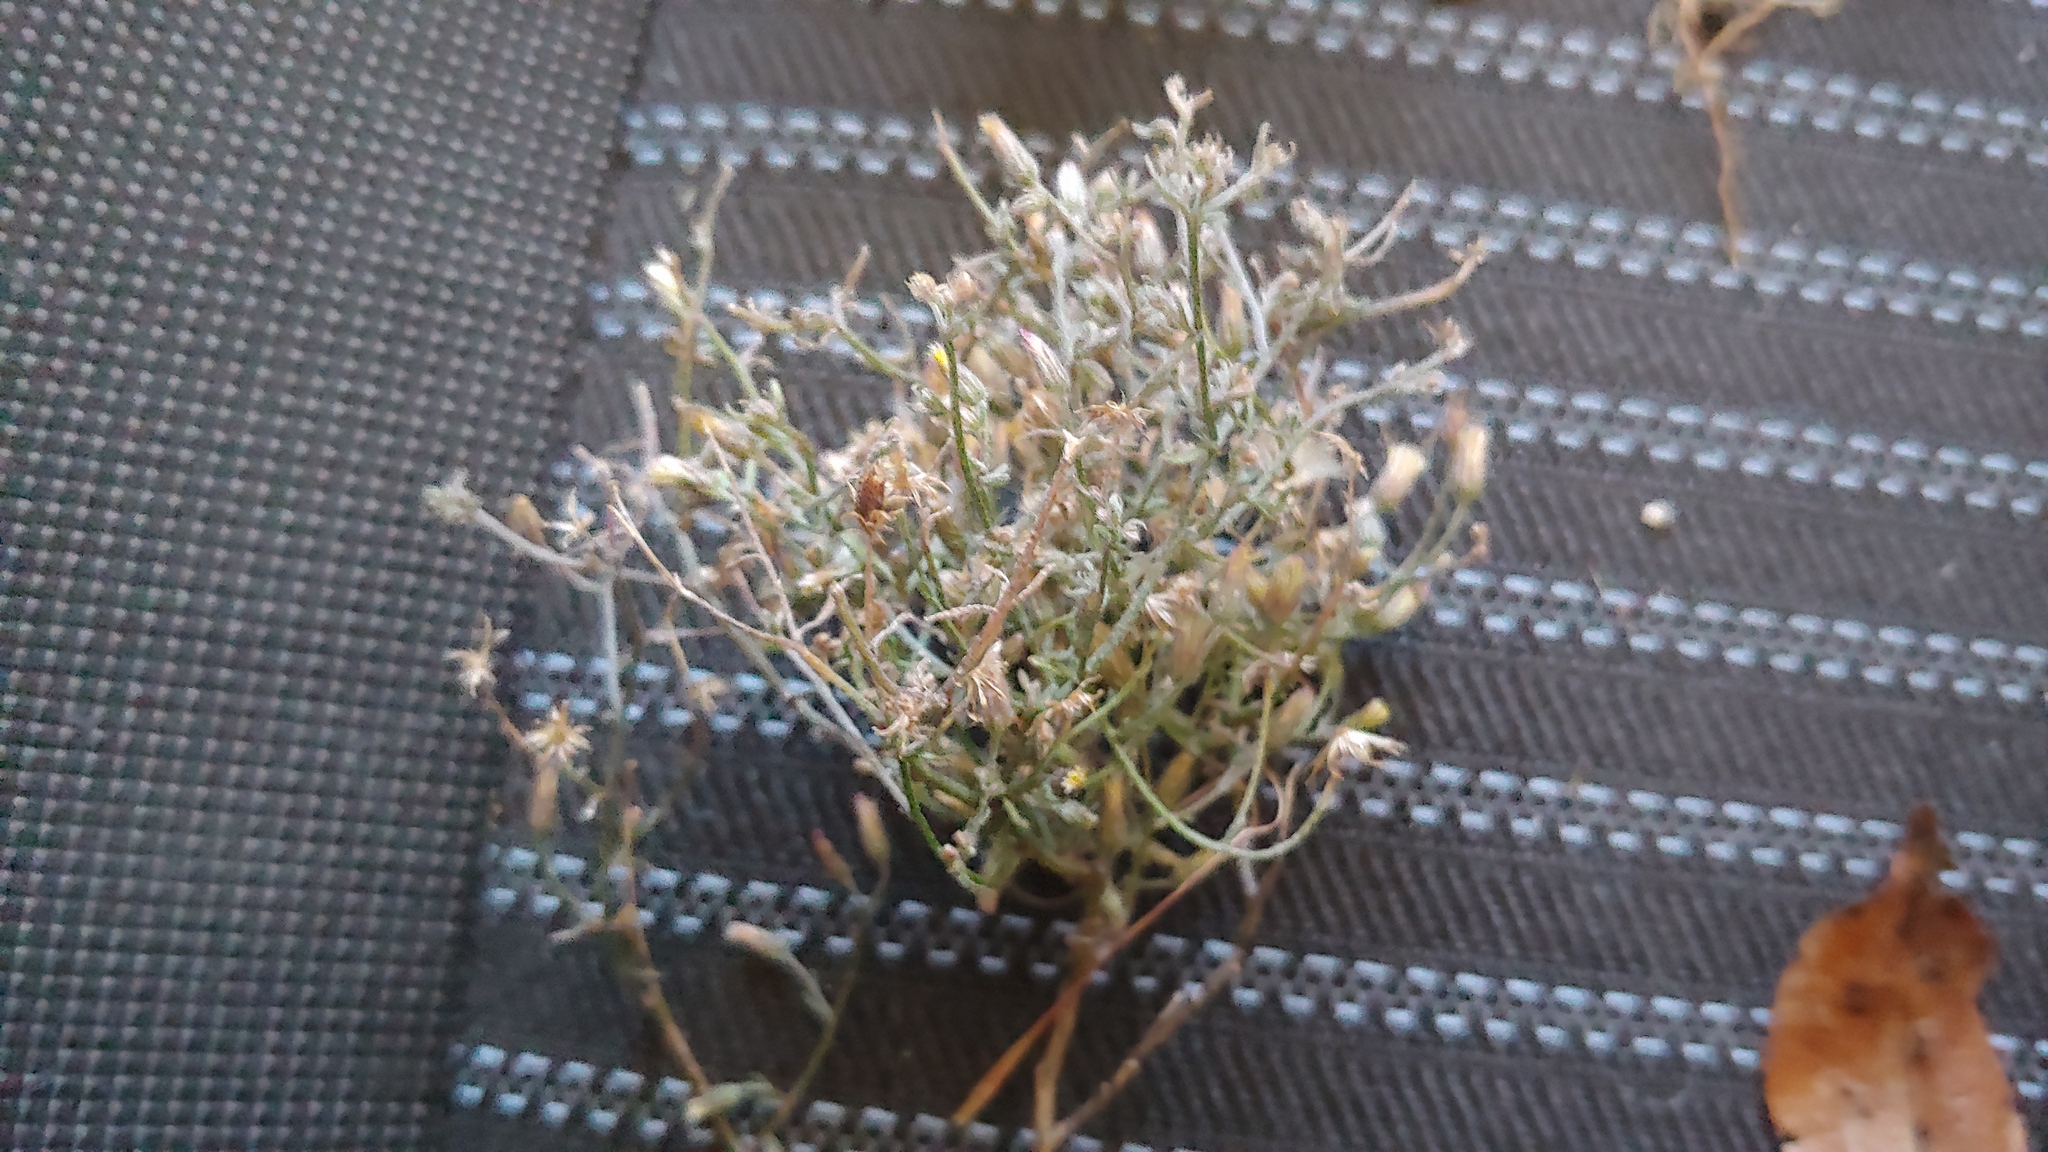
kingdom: Plantae
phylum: Tracheophyta
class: Magnoliopsida
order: Asterales
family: Asteraceae
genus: Erigeron
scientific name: Erigeron divaricatus
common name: Dwarf conyza
